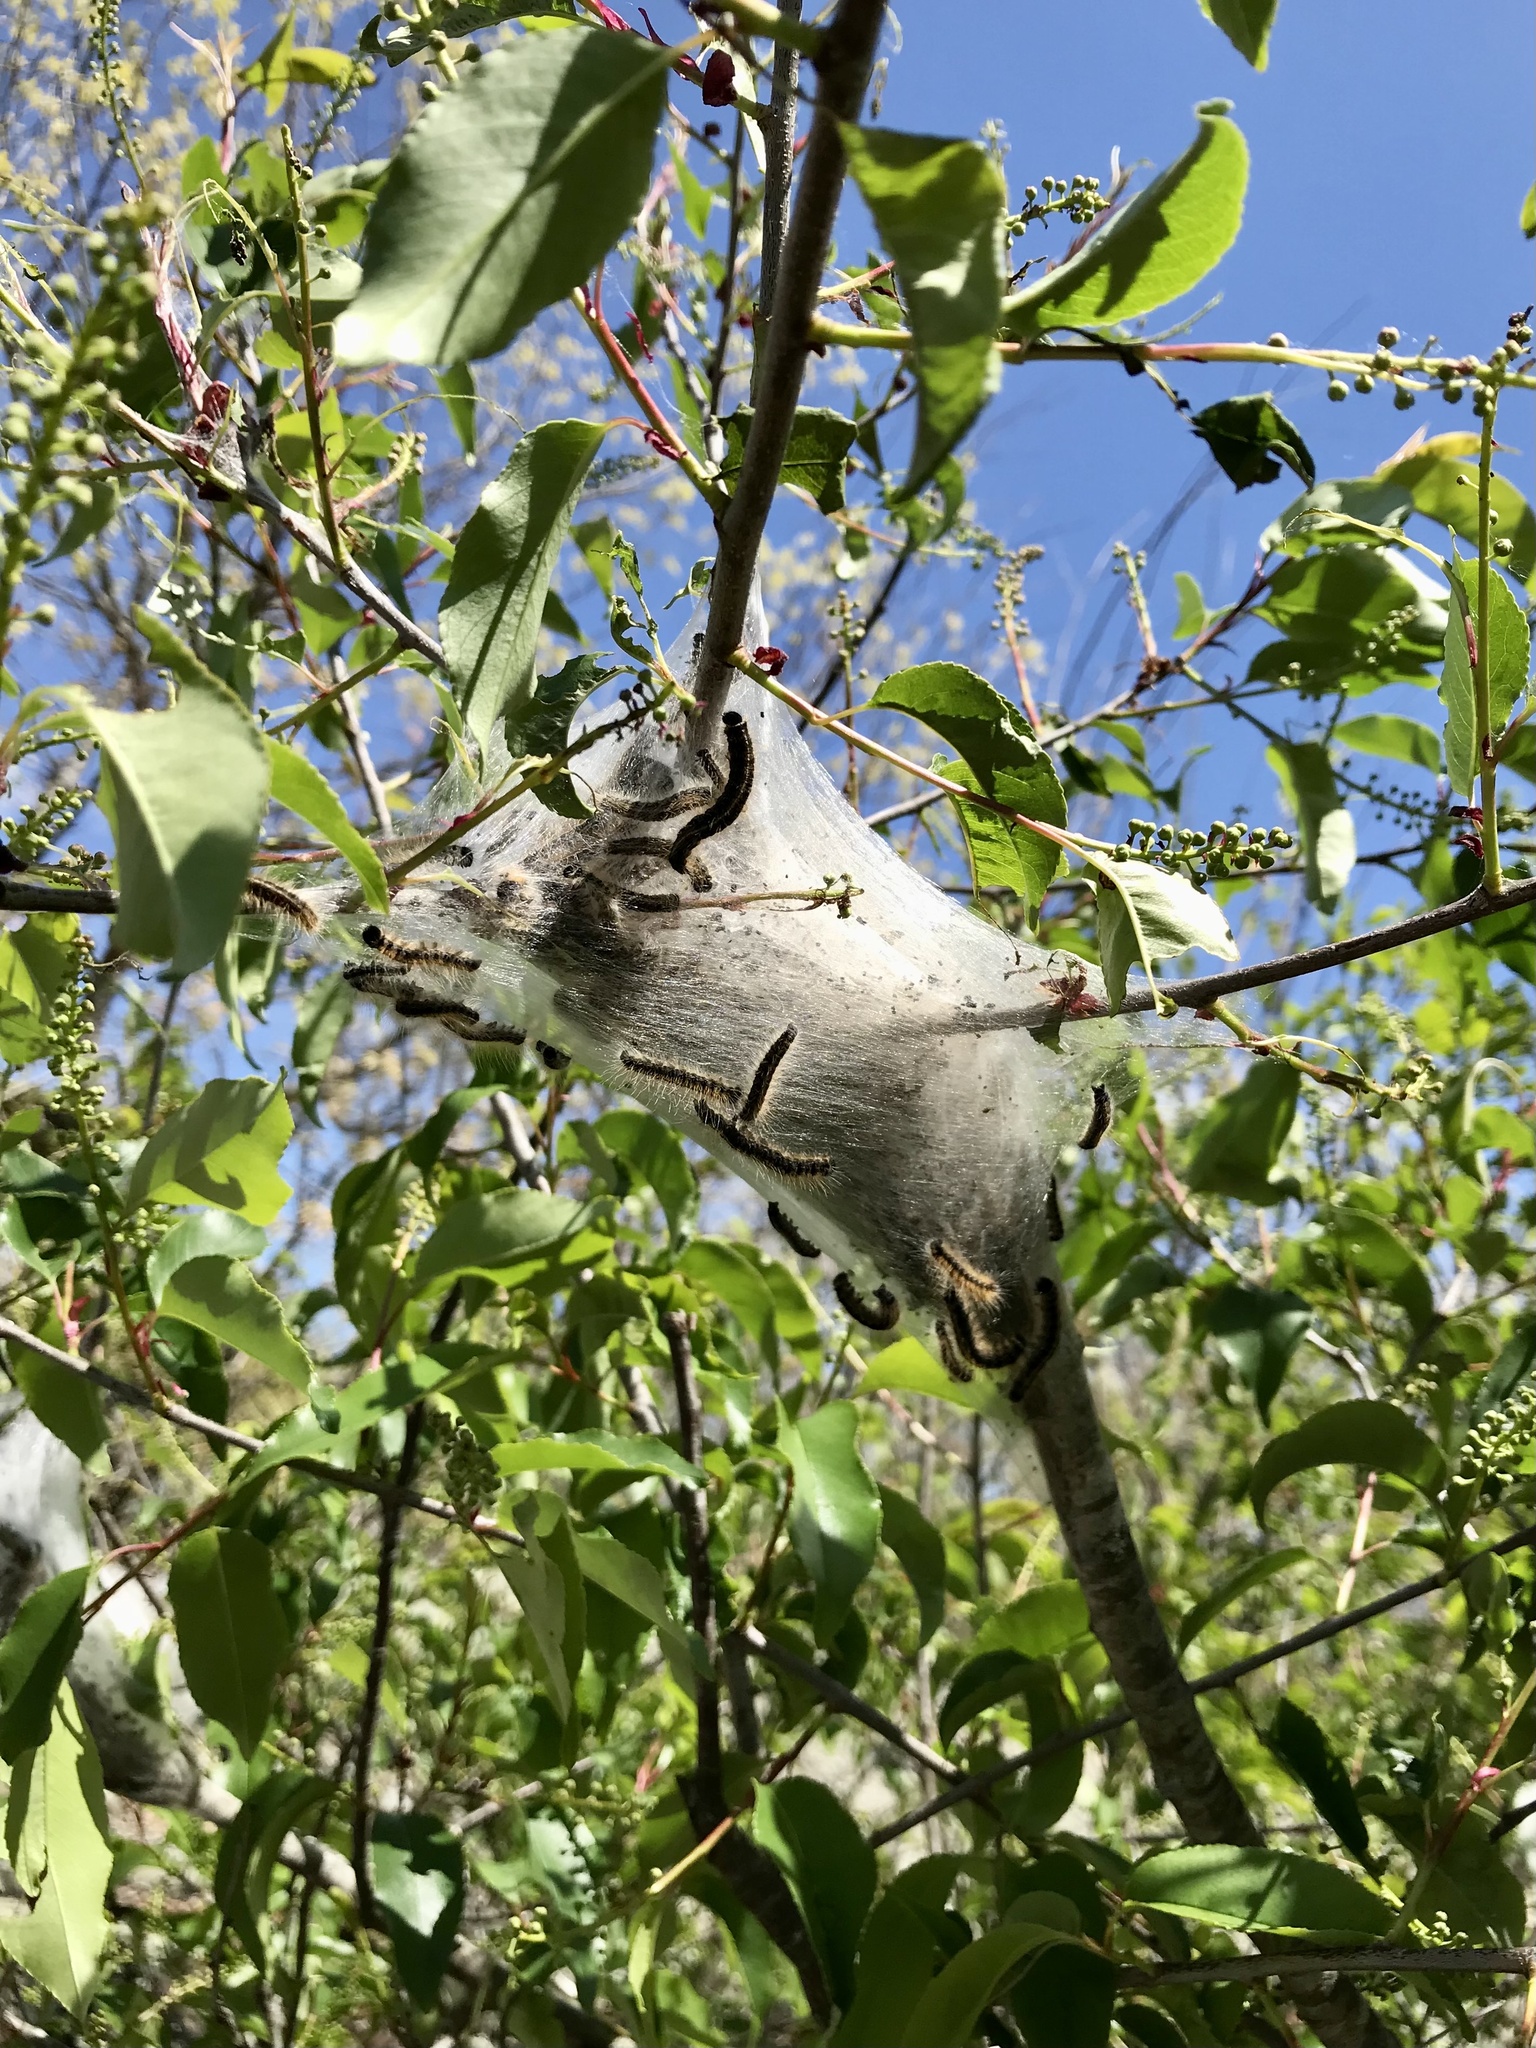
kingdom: Animalia
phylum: Arthropoda
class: Insecta
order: Lepidoptera
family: Lasiocampidae
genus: Malacosoma
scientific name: Malacosoma americana
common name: Eastern tent caterpillar moth
